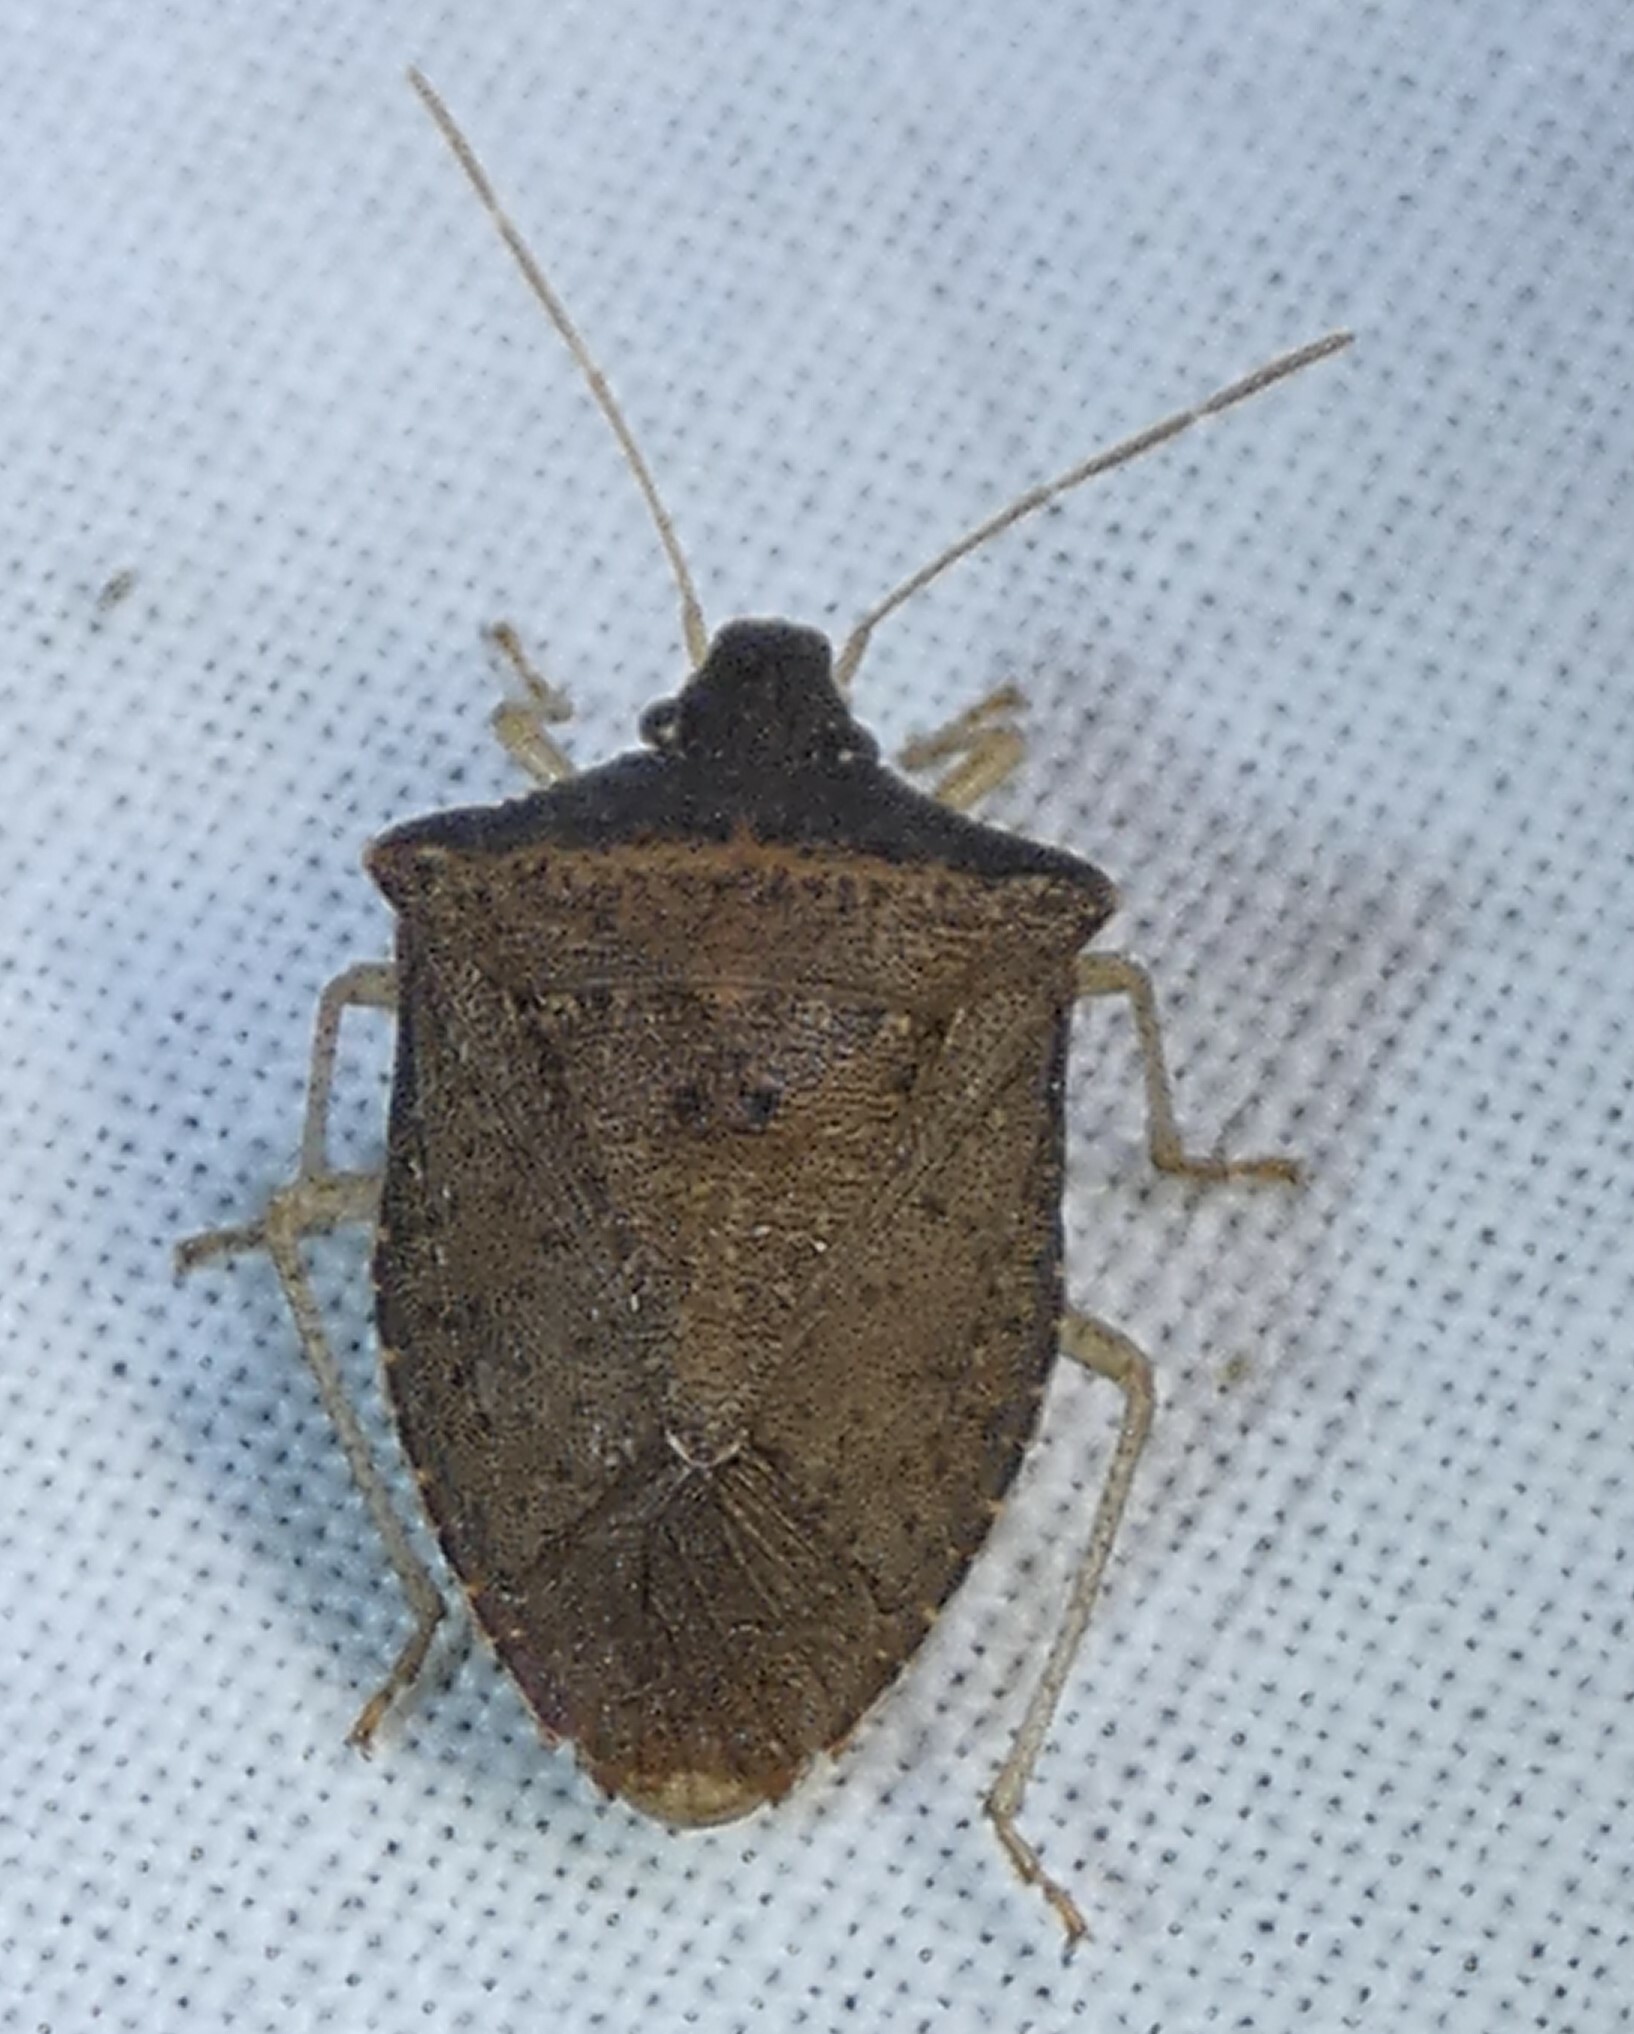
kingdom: Animalia
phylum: Arthropoda
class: Insecta
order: Hemiptera
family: Pentatomidae
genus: Euschistus
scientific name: Euschistus obscurus
